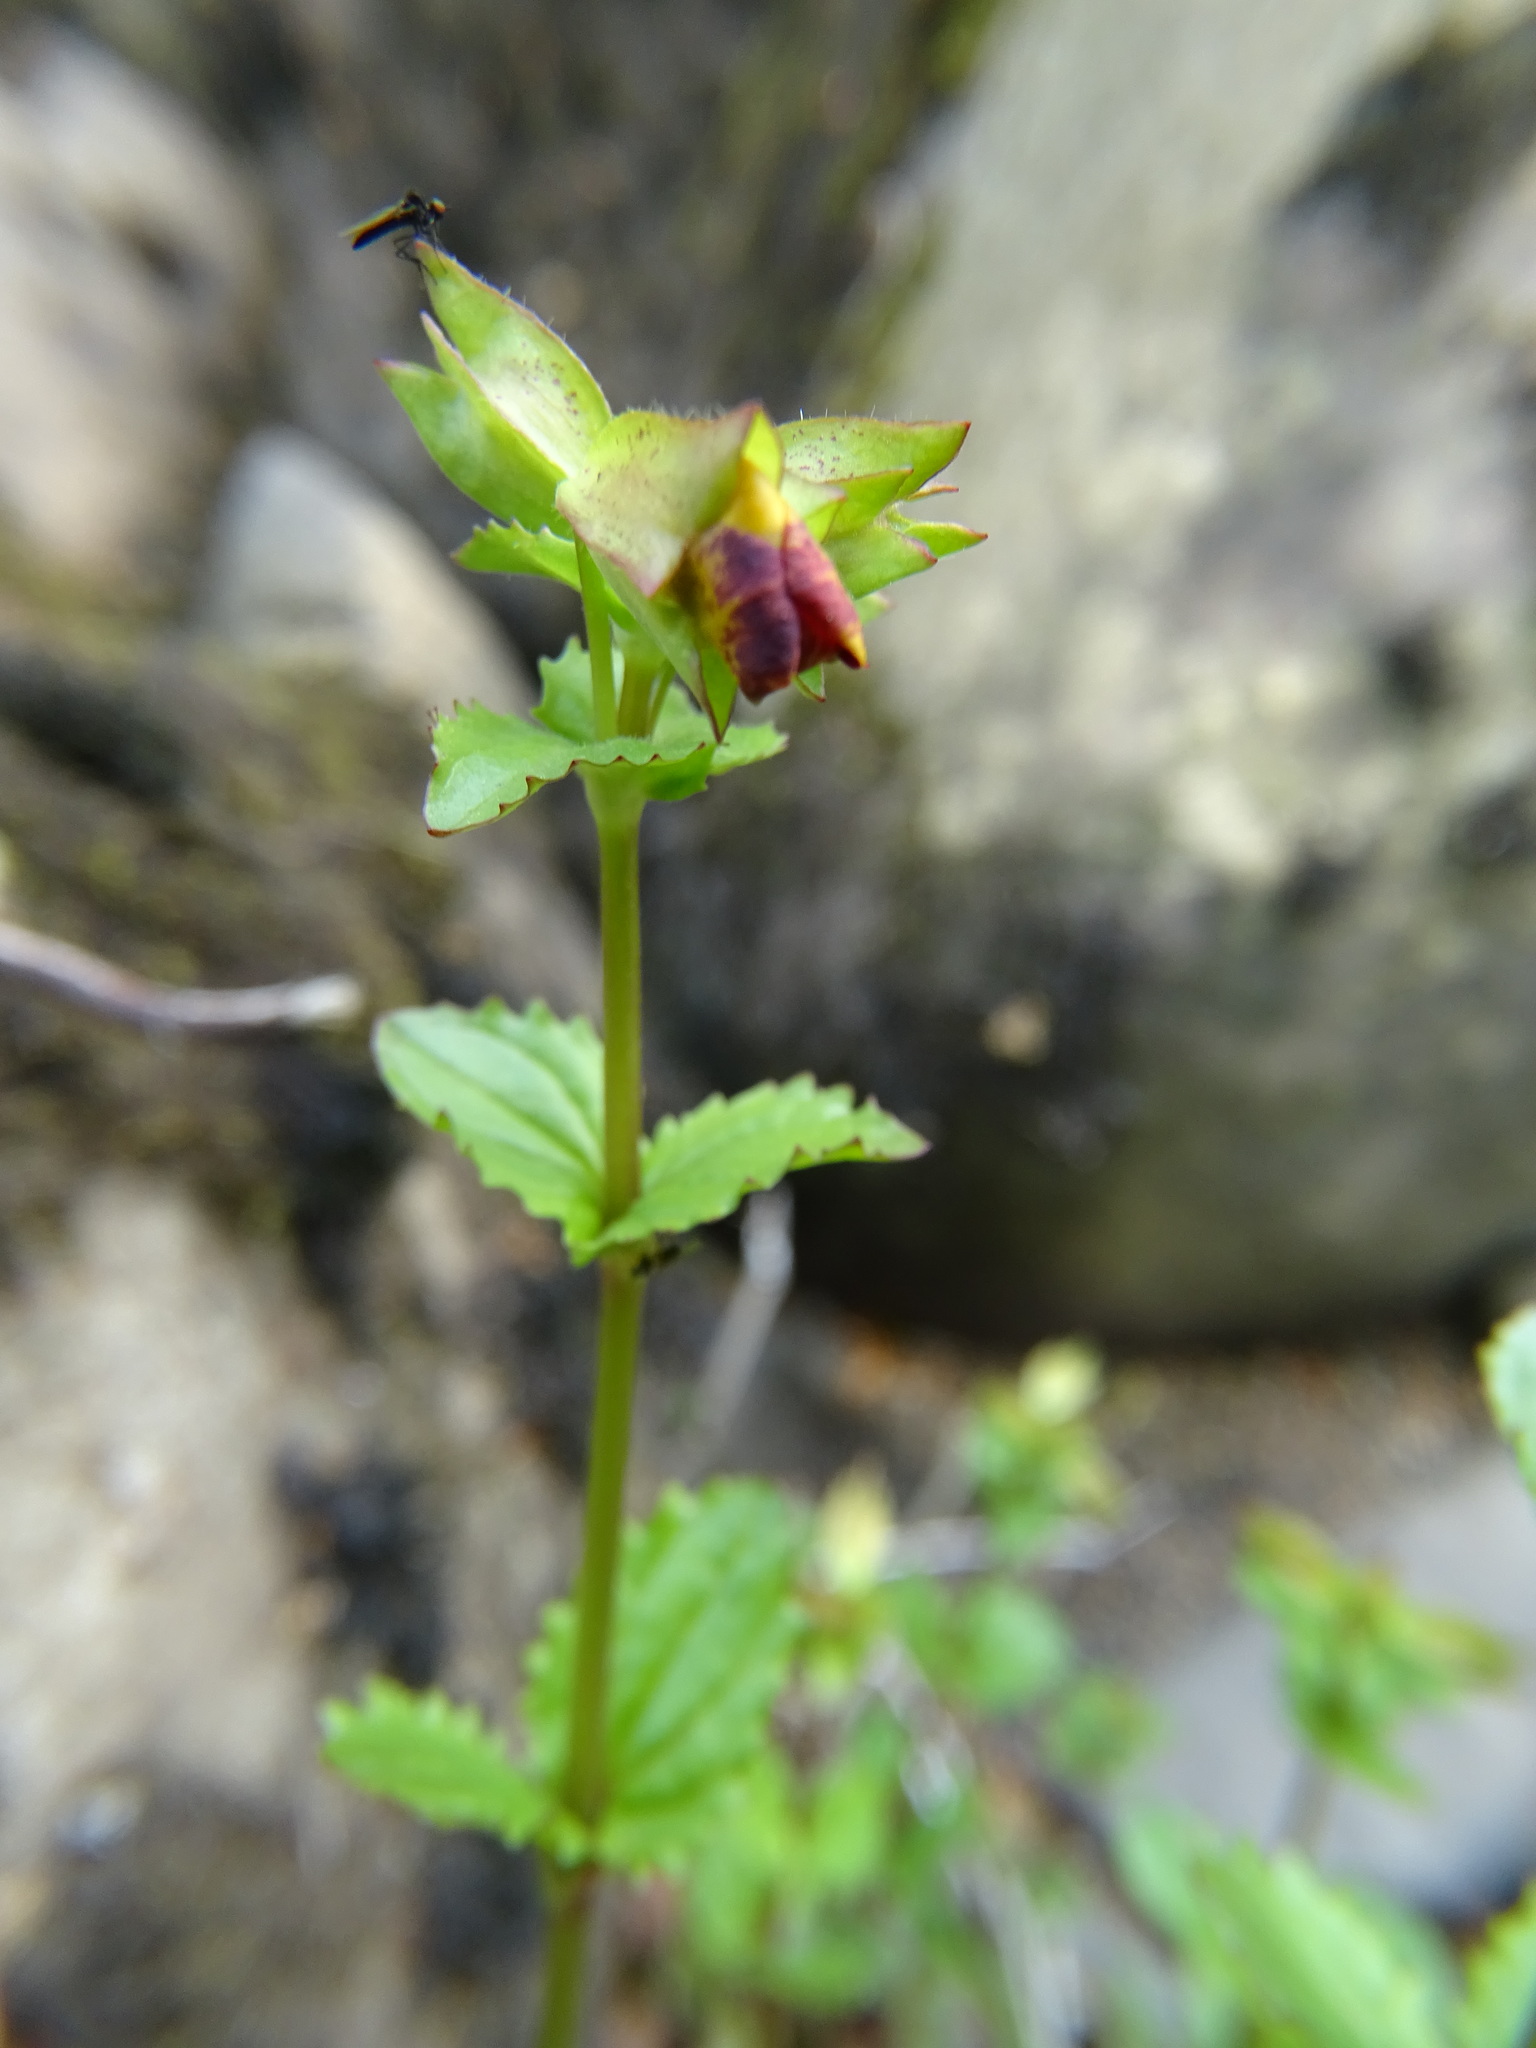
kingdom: Plantae
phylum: Tracheophyta
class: Magnoliopsida
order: Lamiales
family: Phrymaceae
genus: Erythranthe
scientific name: Erythranthe guttata
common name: Monkeyflower
